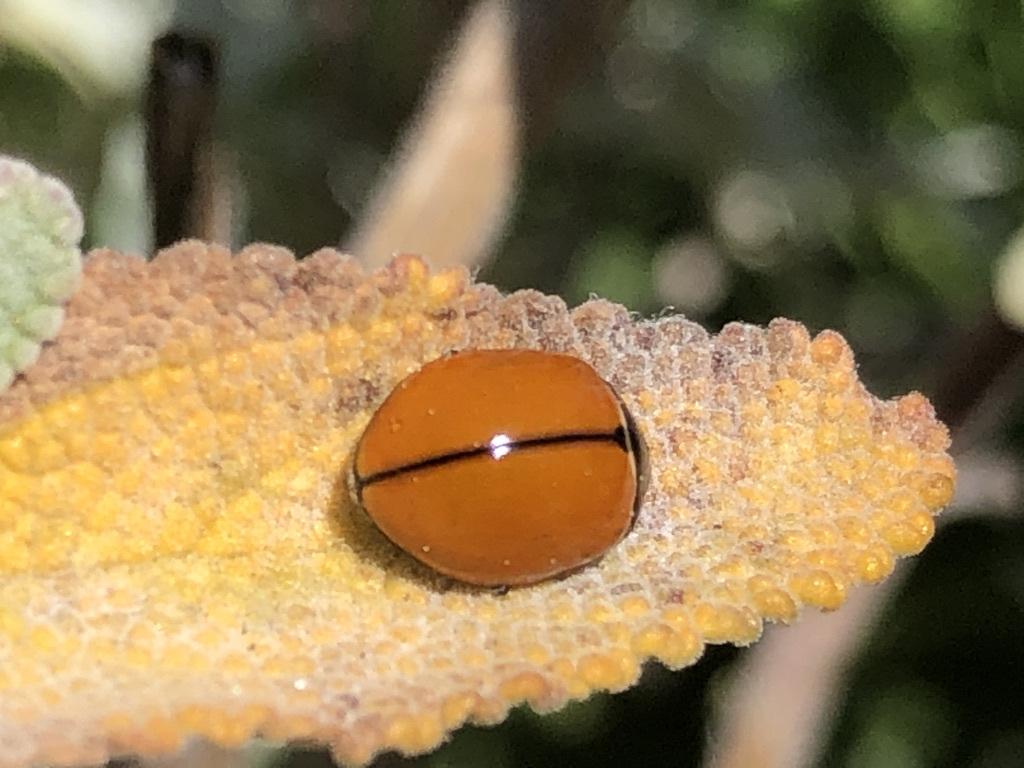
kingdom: Animalia
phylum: Arthropoda
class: Insecta
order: Coleoptera
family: Coccinellidae
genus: Coccinella
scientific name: Coccinella californica
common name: Lady beetle
